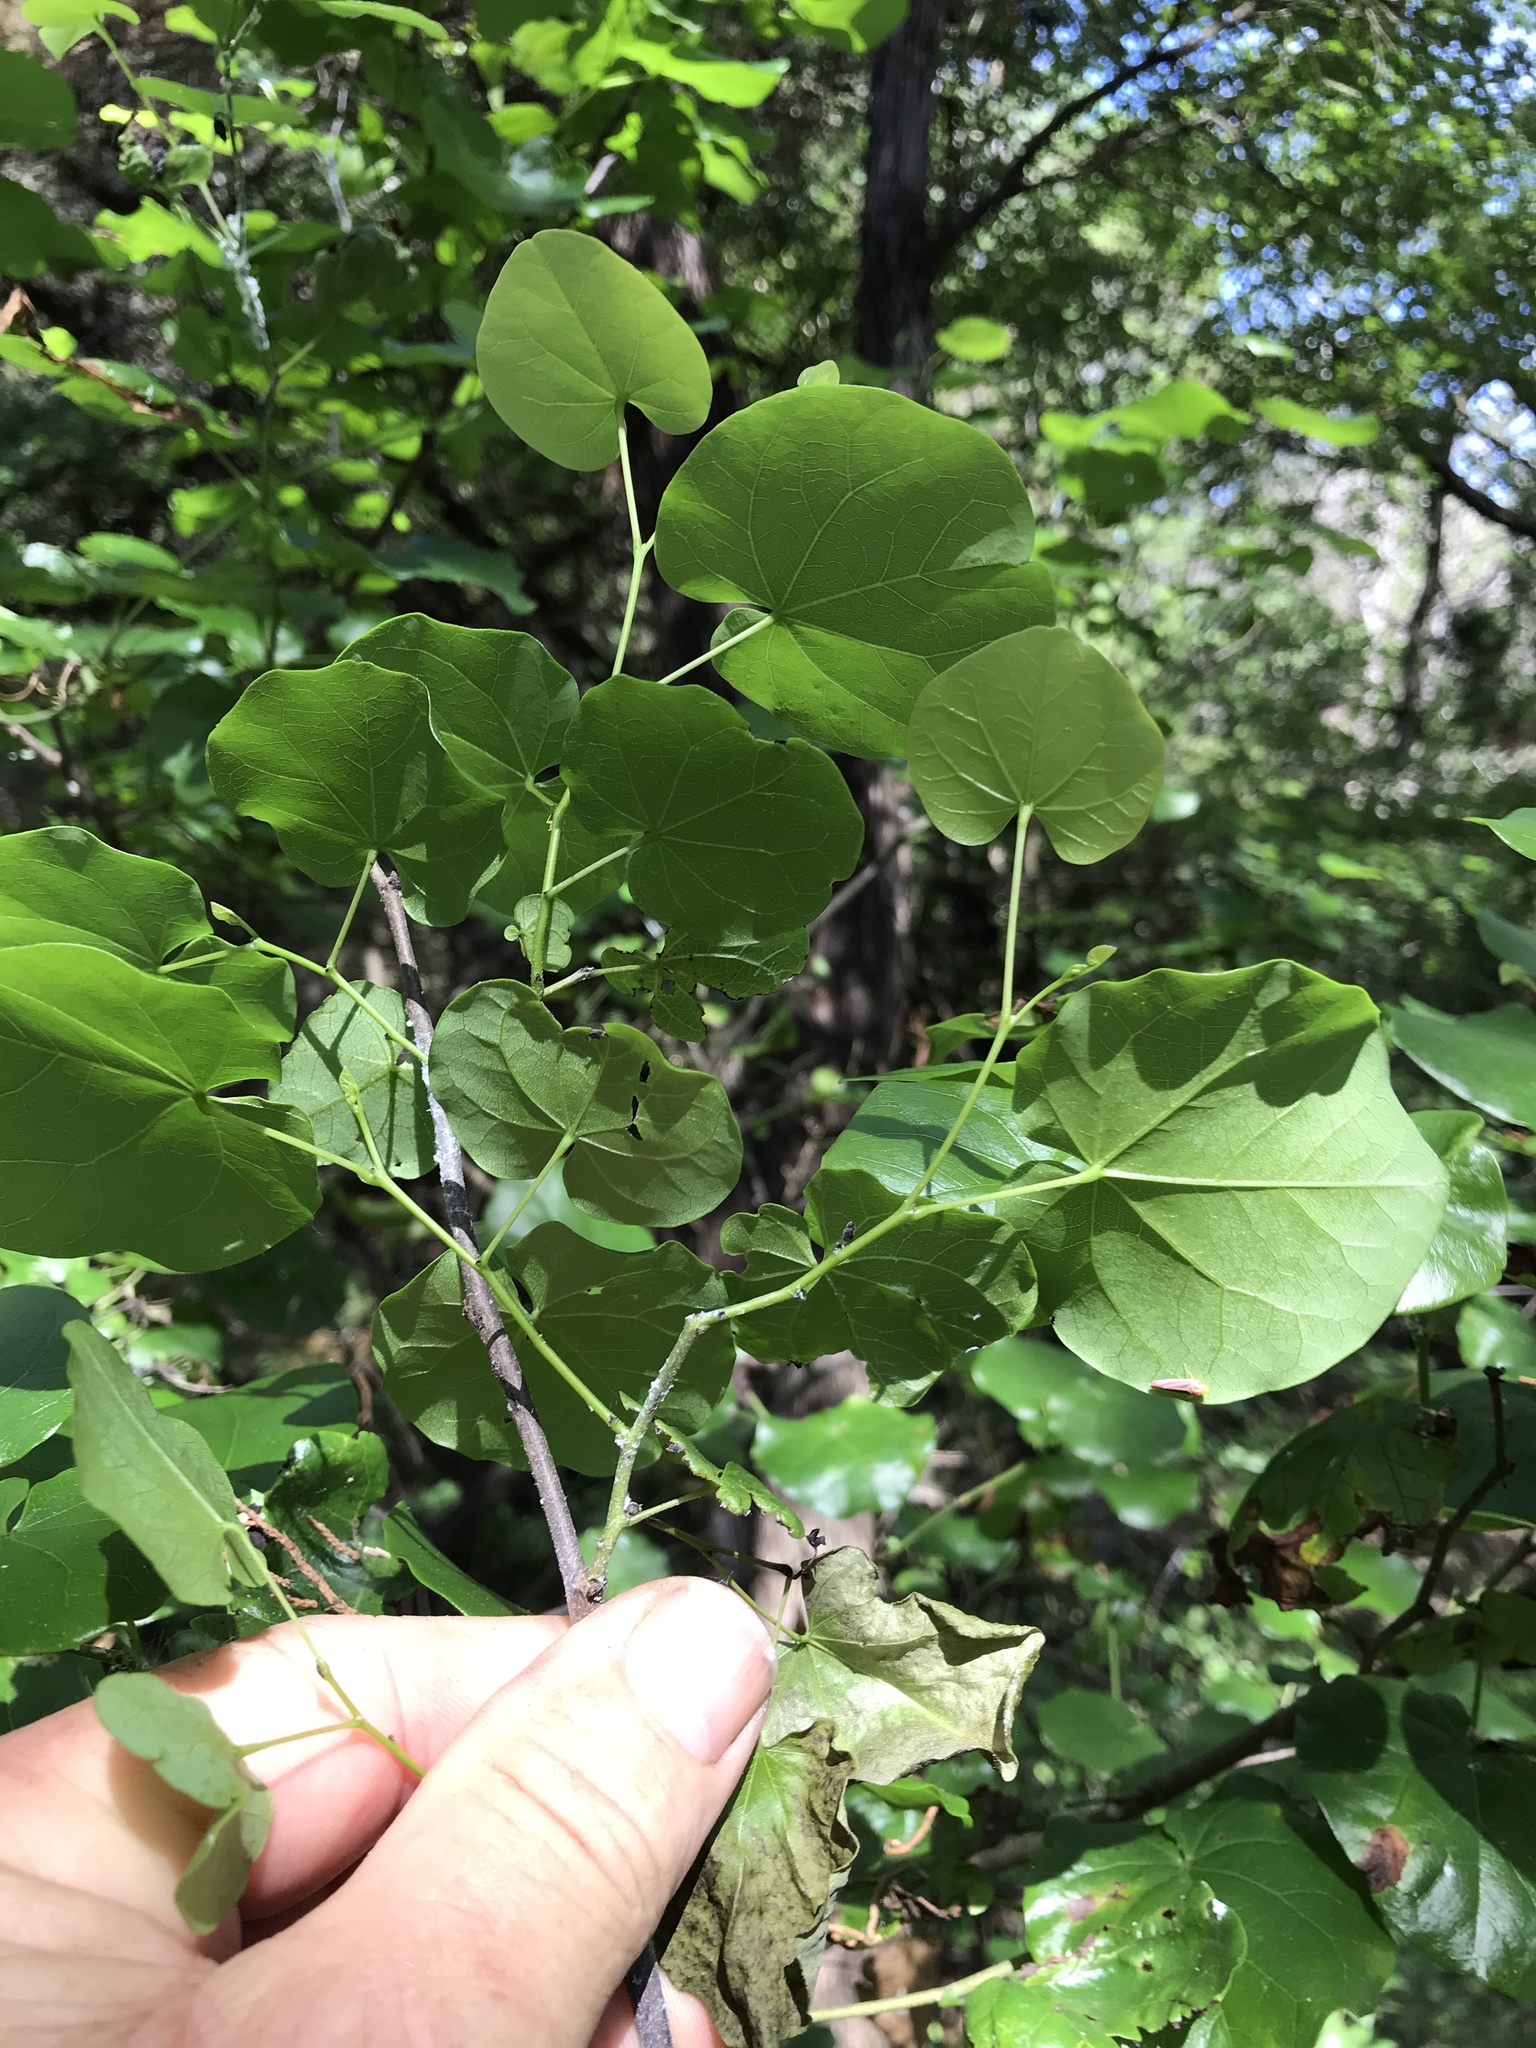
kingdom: Plantae
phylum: Tracheophyta
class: Magnoliopsida
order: Fabales
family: Fabaceae
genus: Cercis
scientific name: Cercis canadensis
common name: Eastern redbud
